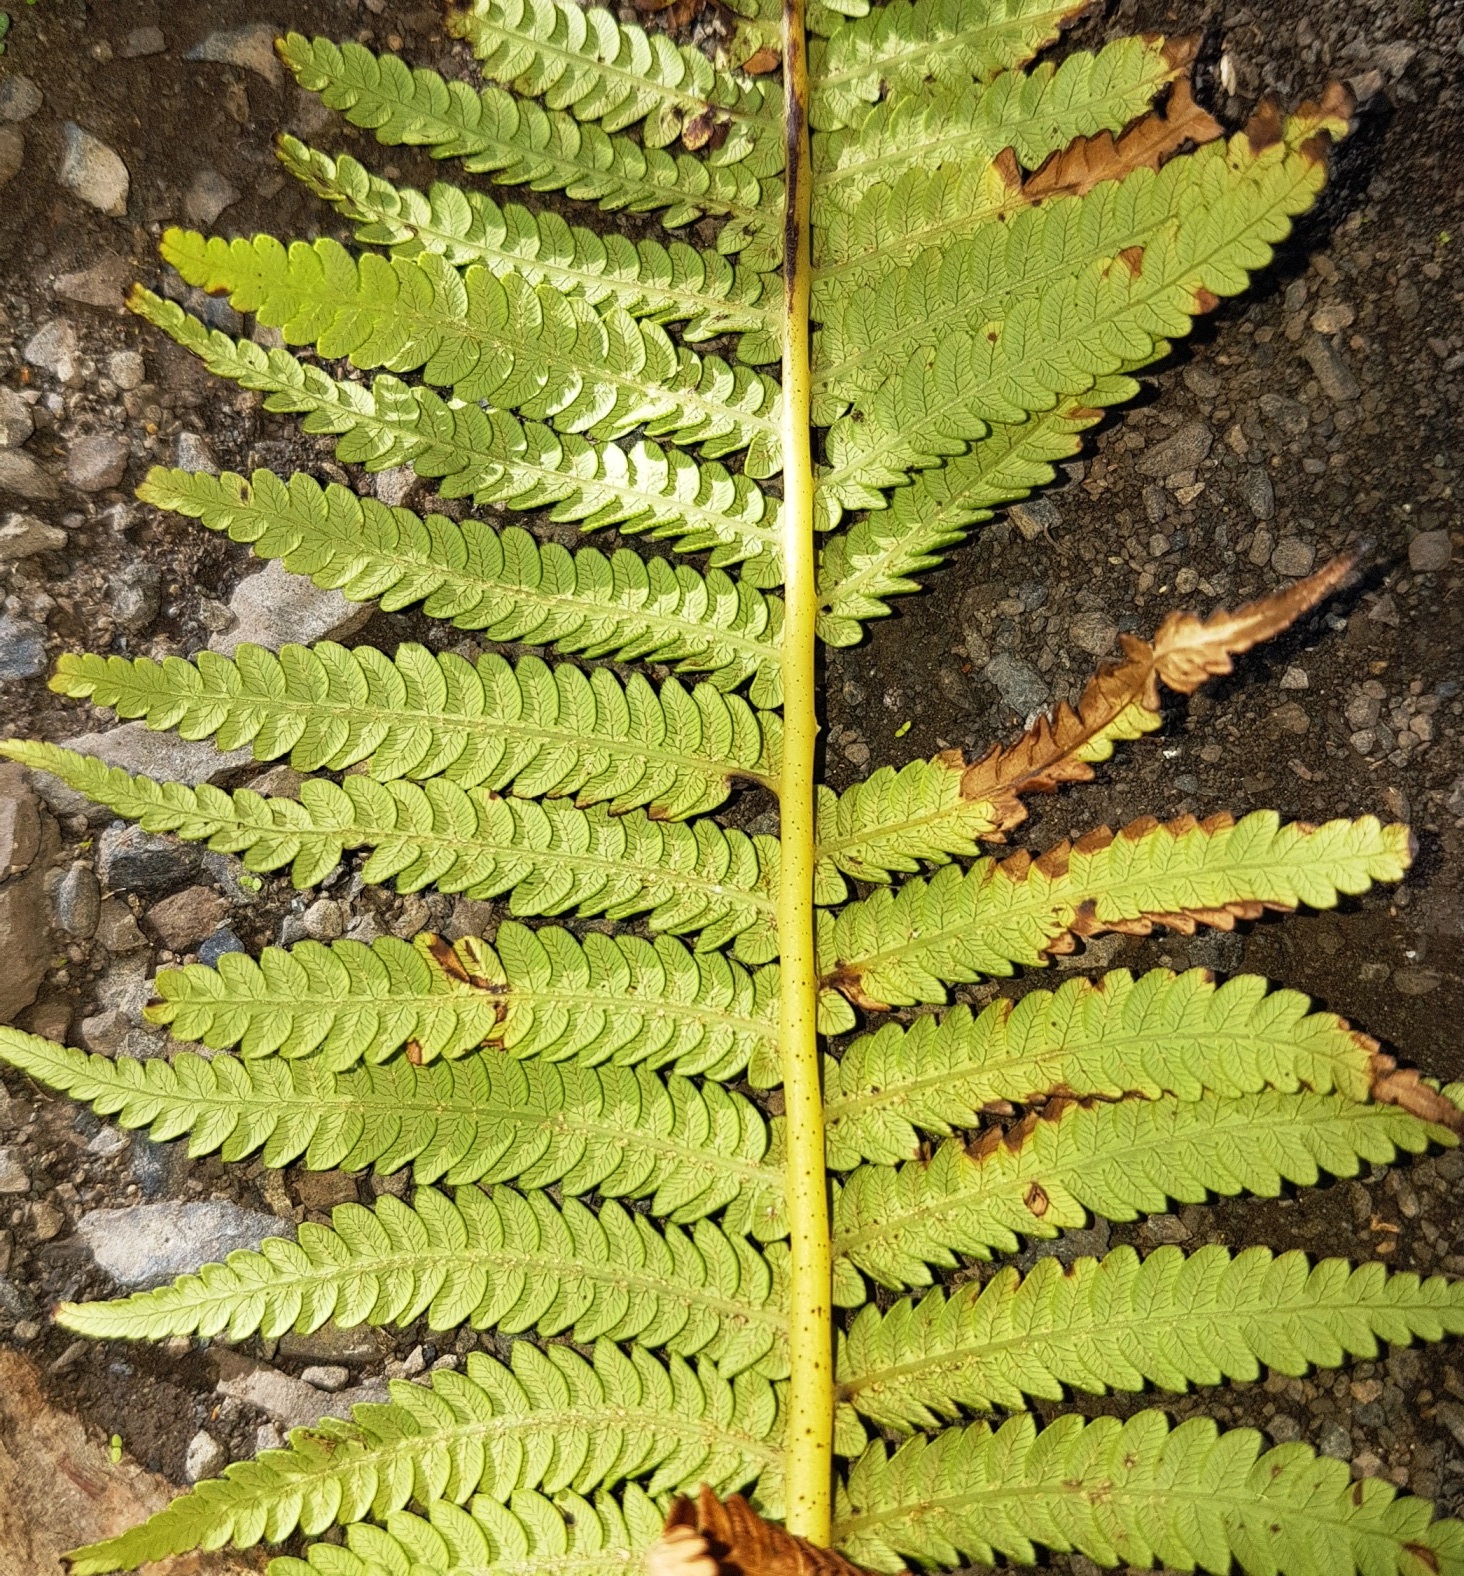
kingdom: Plantae
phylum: Tracheophyta
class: Polypodiopsida
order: Cyatheales
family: Cyatheaceae
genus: Sphaeropteris
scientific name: Sphaeropteris medullaris
